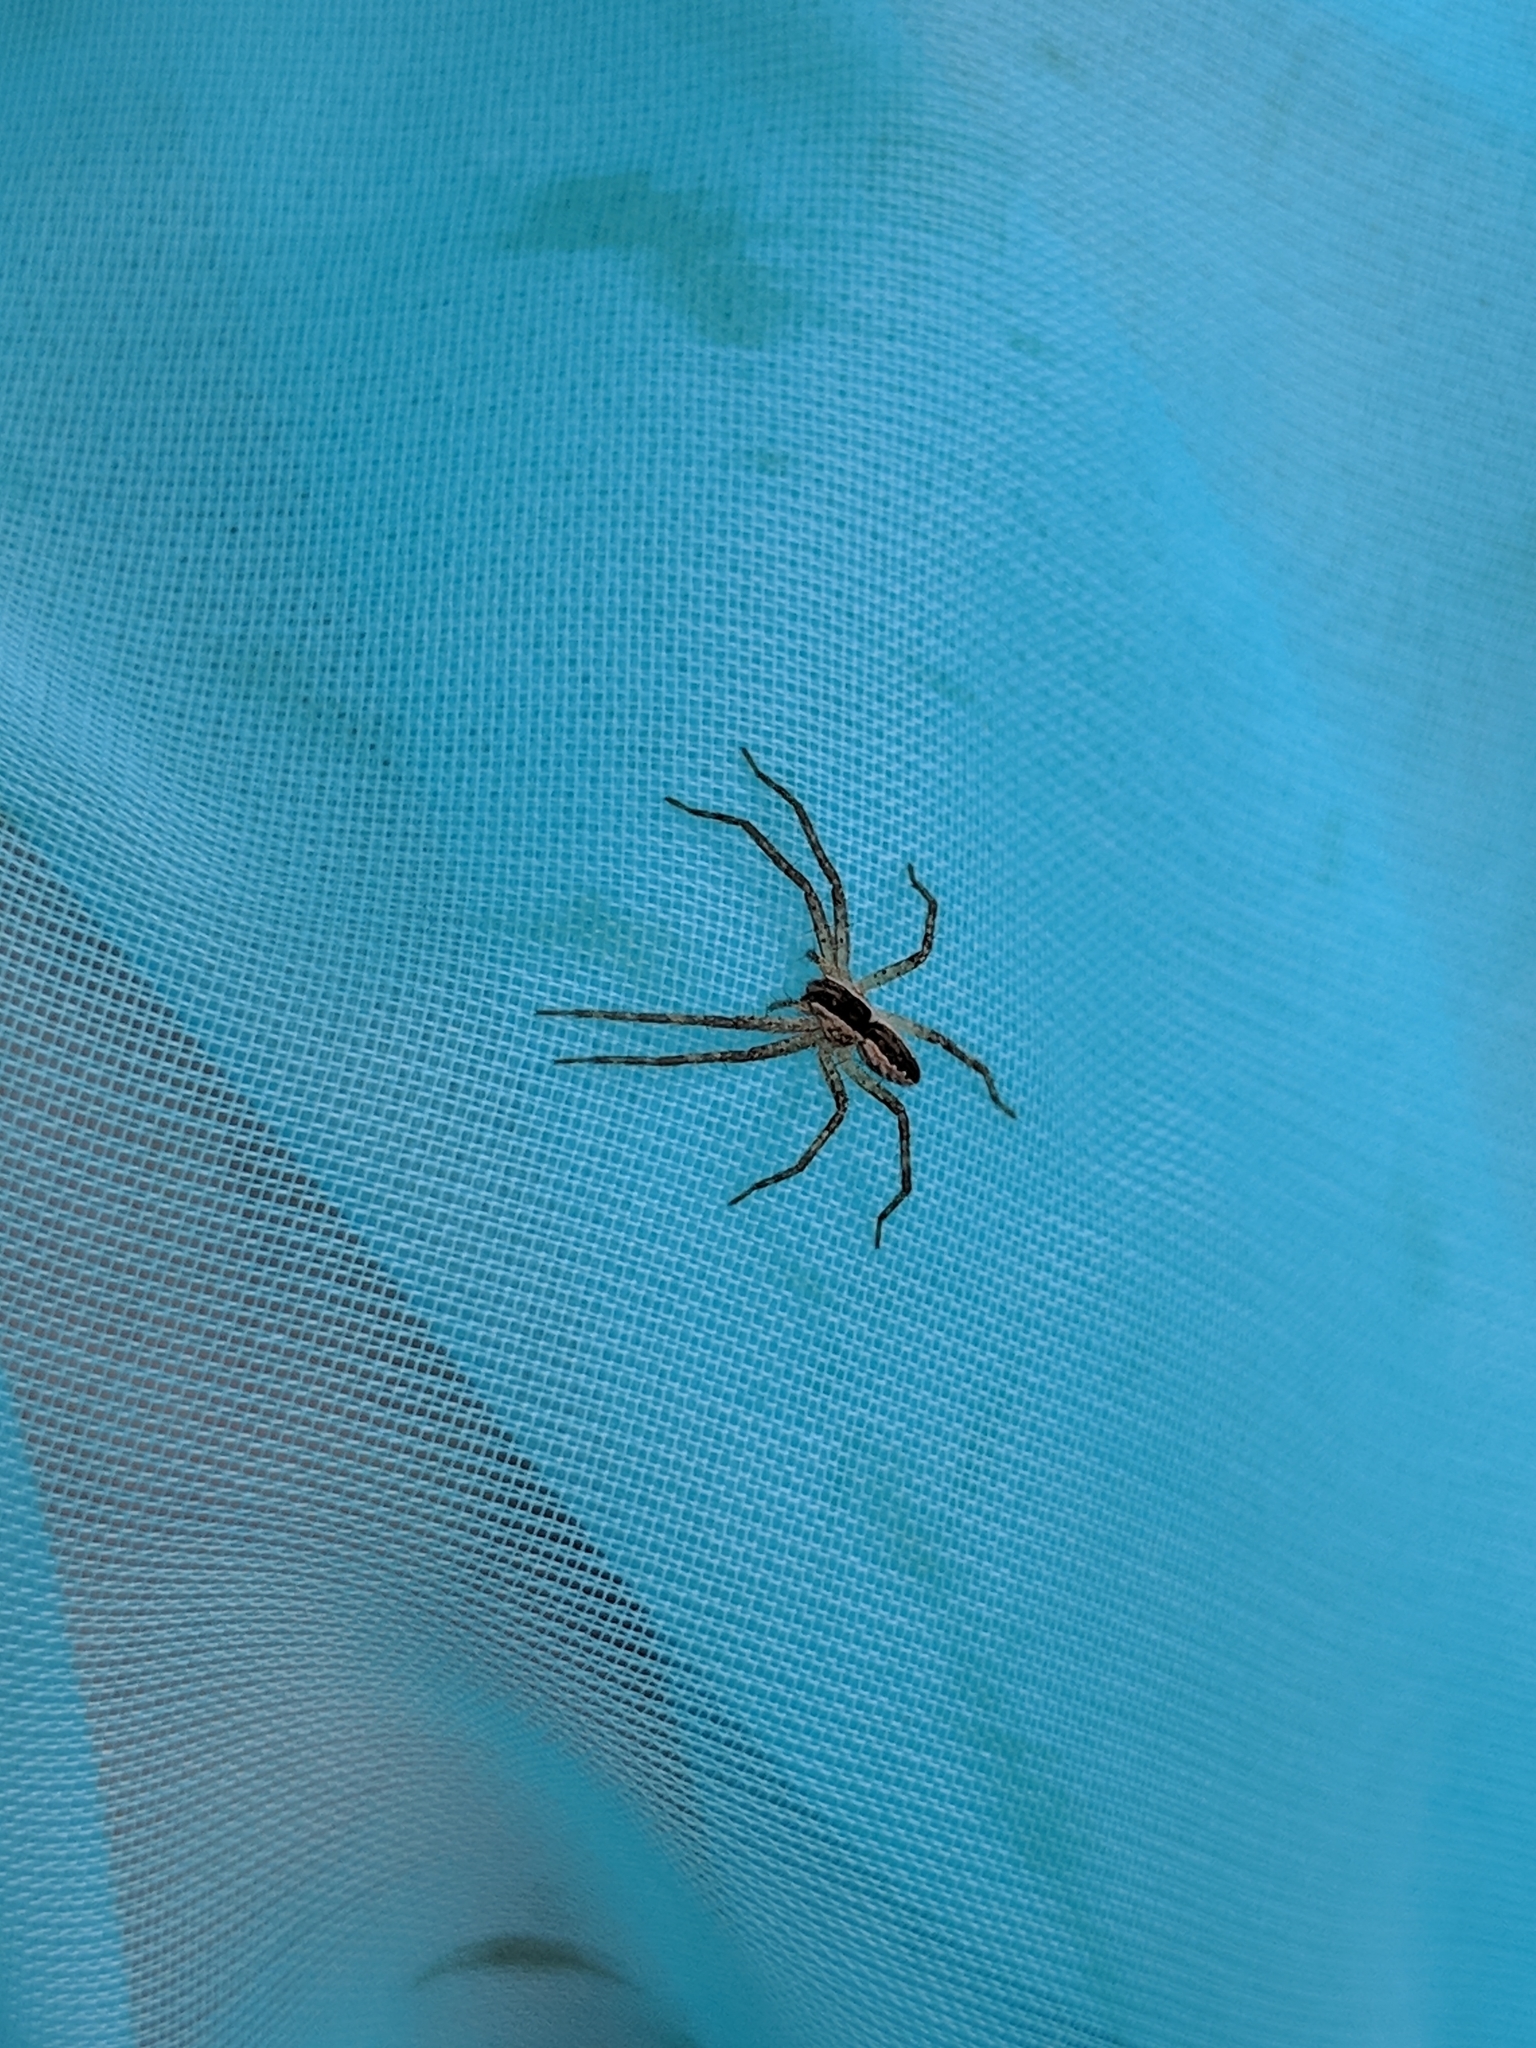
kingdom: Animalia
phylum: Arthropoda
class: Arachnida
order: Araneae
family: Pisauridae
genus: Pisaurina
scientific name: Pisaurina mira
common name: American nursery web spider
